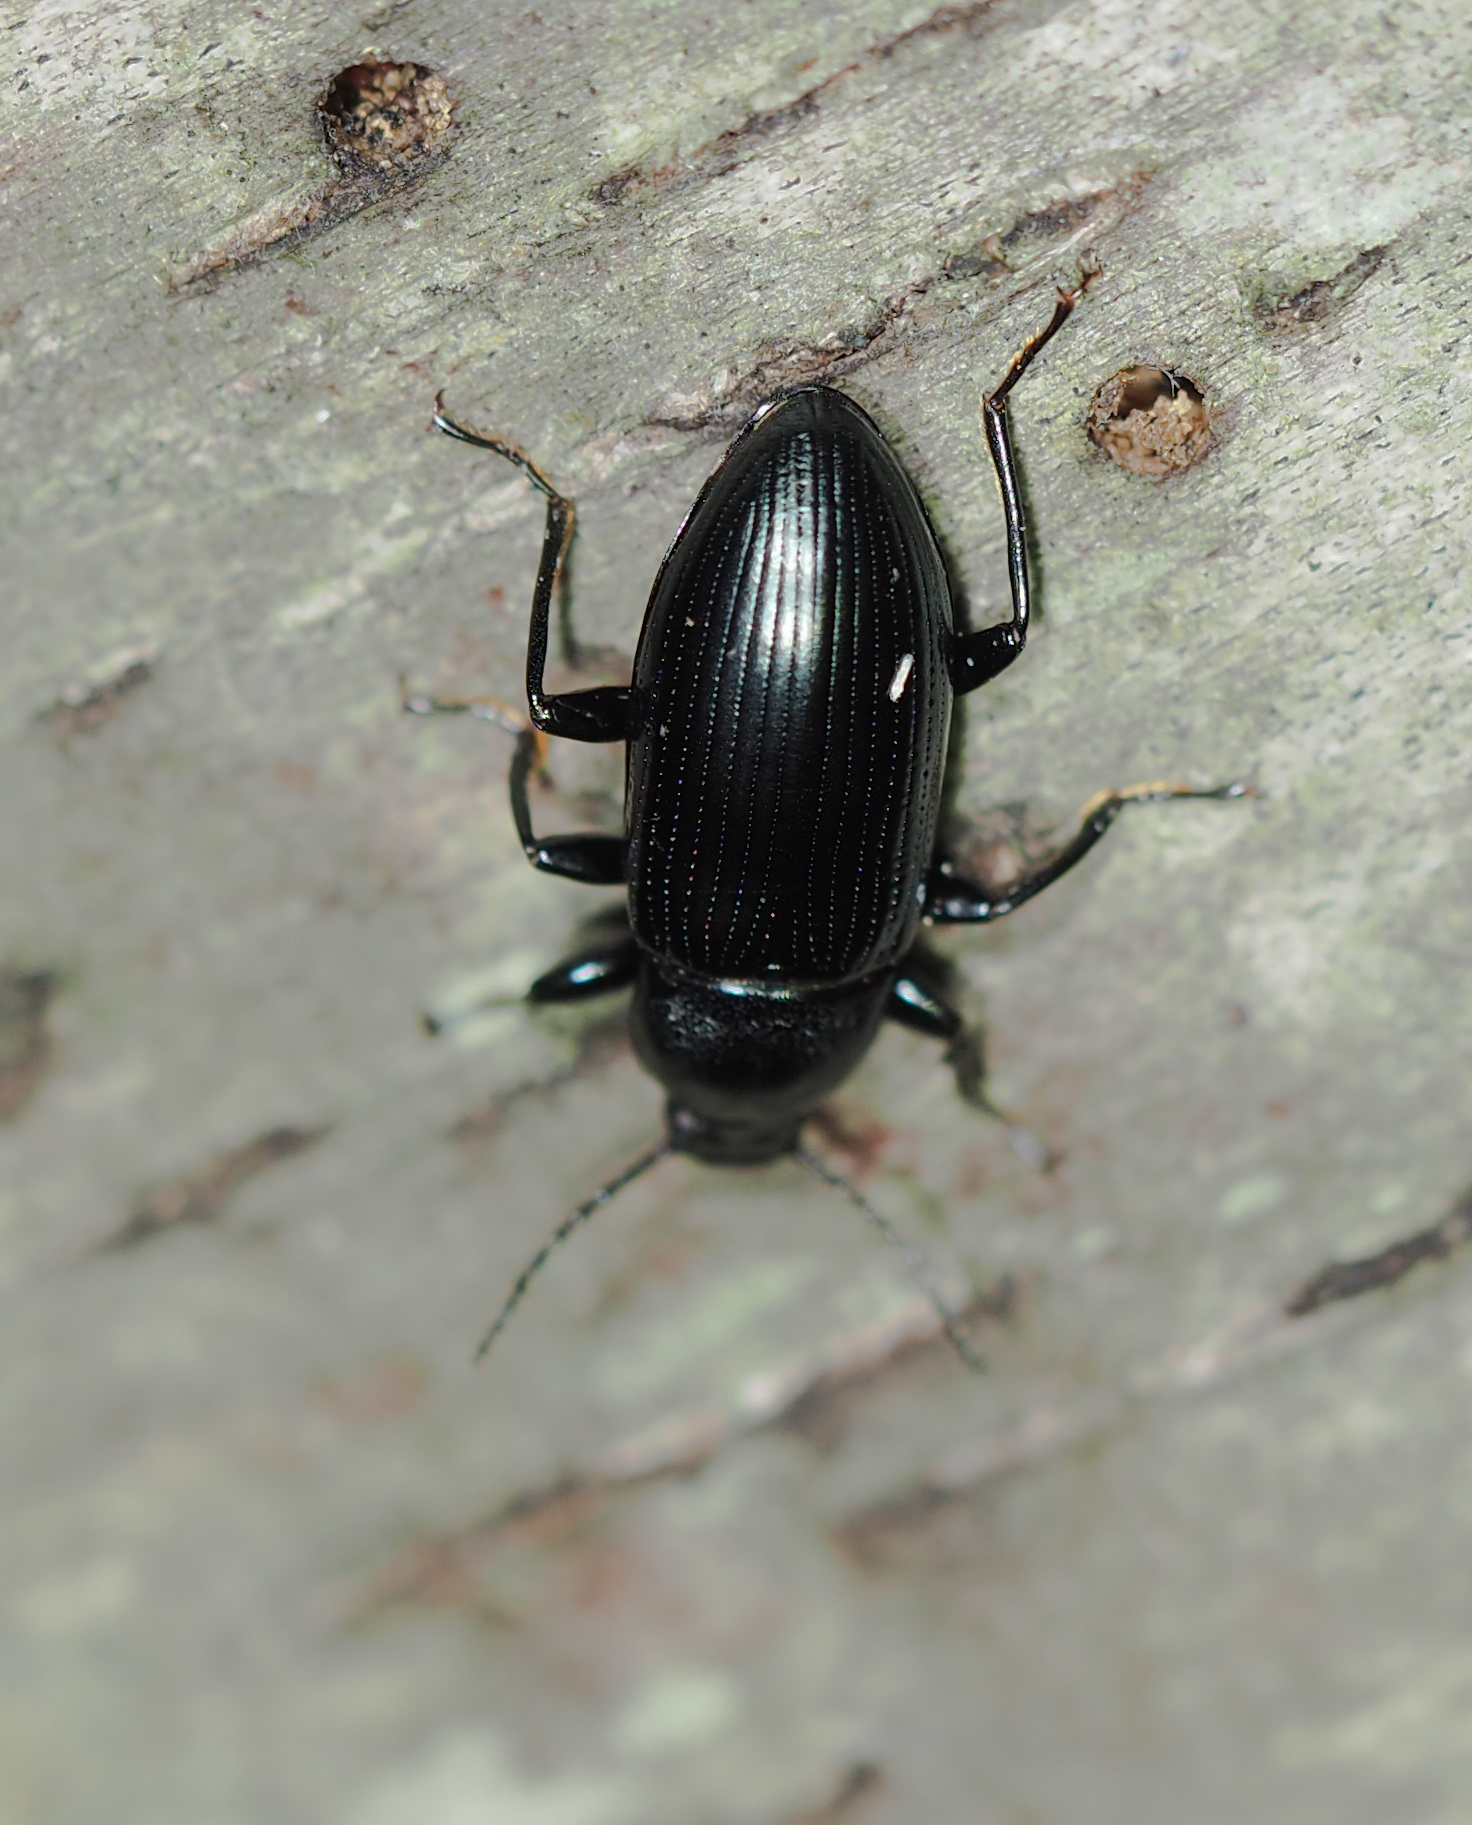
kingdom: Animalia
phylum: Arthropoda
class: Insecta
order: Coleoptera
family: Tenebrionidae
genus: Centronopus
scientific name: Centronopus calcaratus
